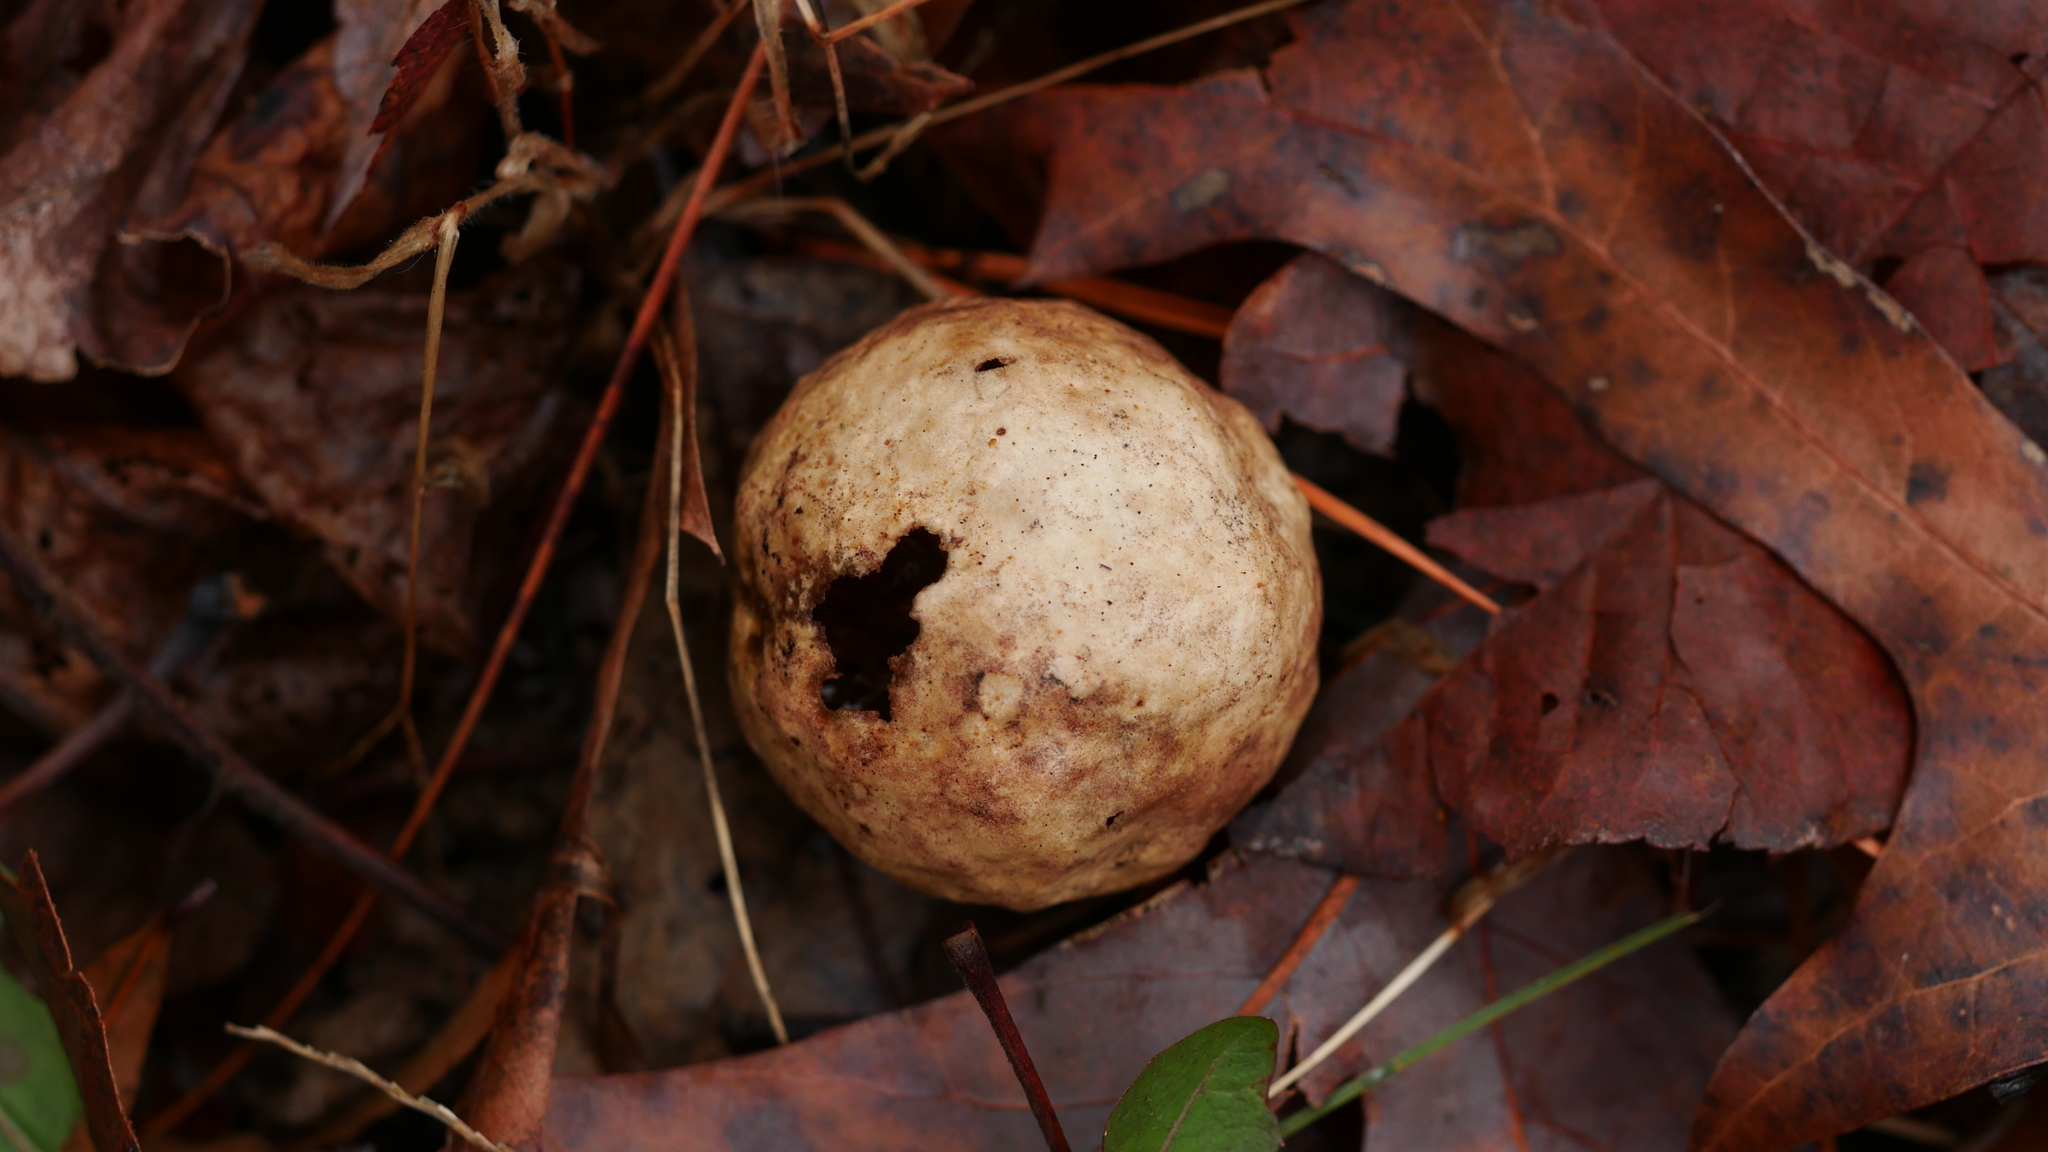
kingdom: Animalia
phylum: Arthropoda
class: Insecta
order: Hymenoptera
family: Cynipidae
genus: Amphibolips
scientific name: Amphibolips
